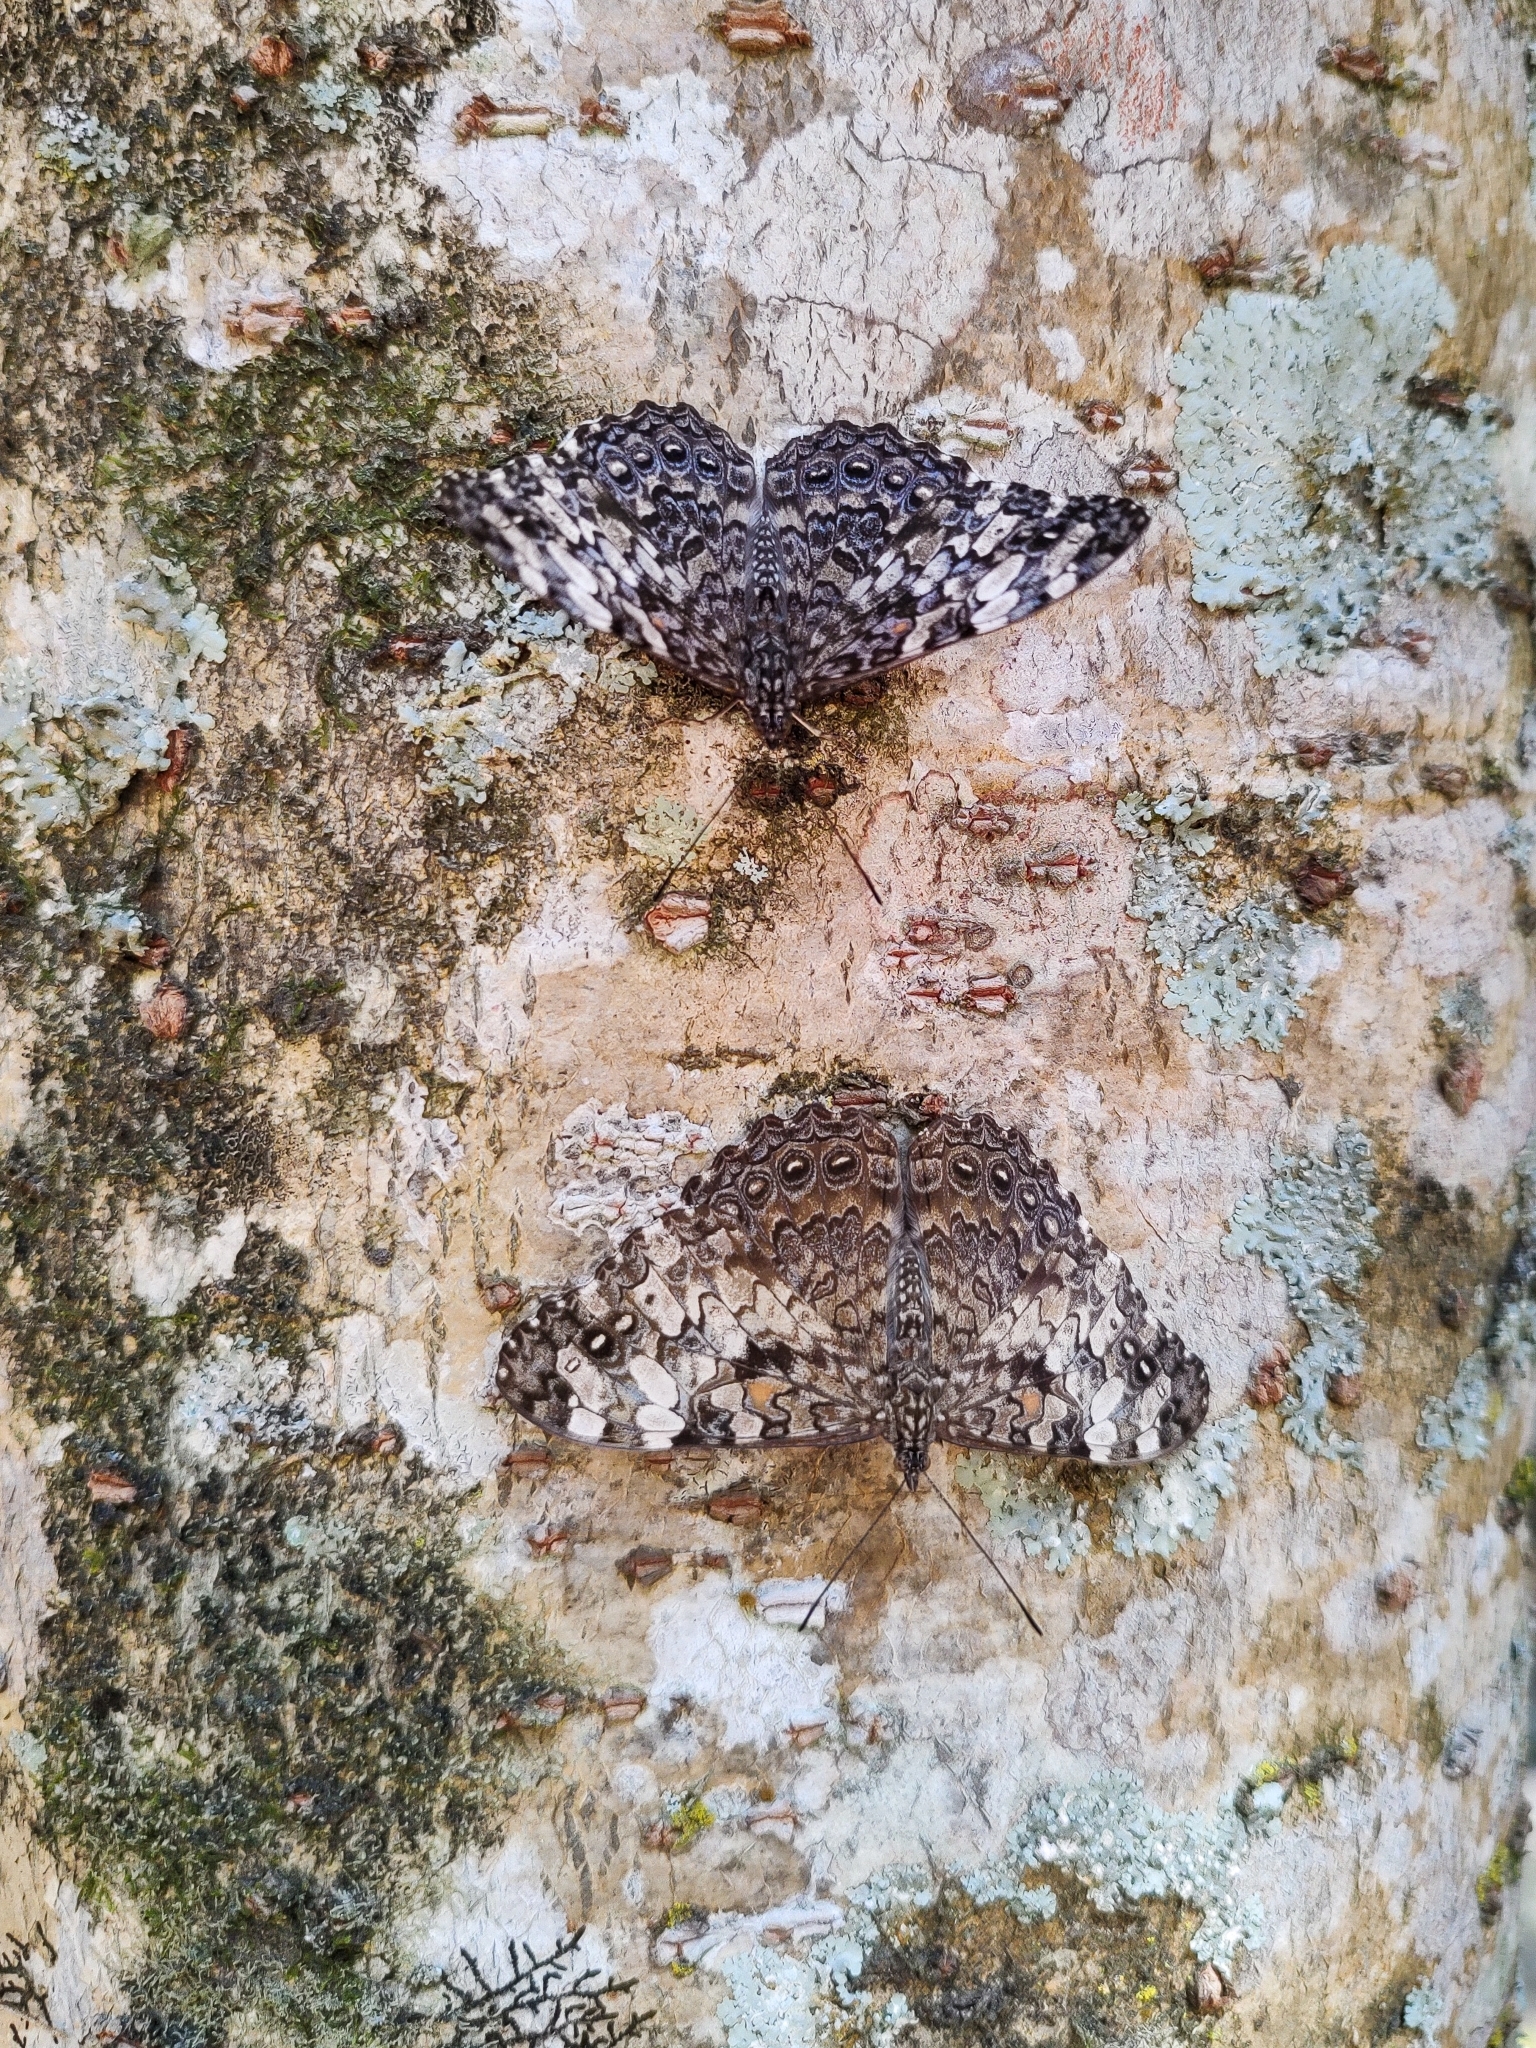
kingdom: Animalia
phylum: Arthropoda
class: Insecta
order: Lepidoptera
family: Nymphalidae
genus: Hamadryas
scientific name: Hamadryas epinome
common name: Epinome cracker
